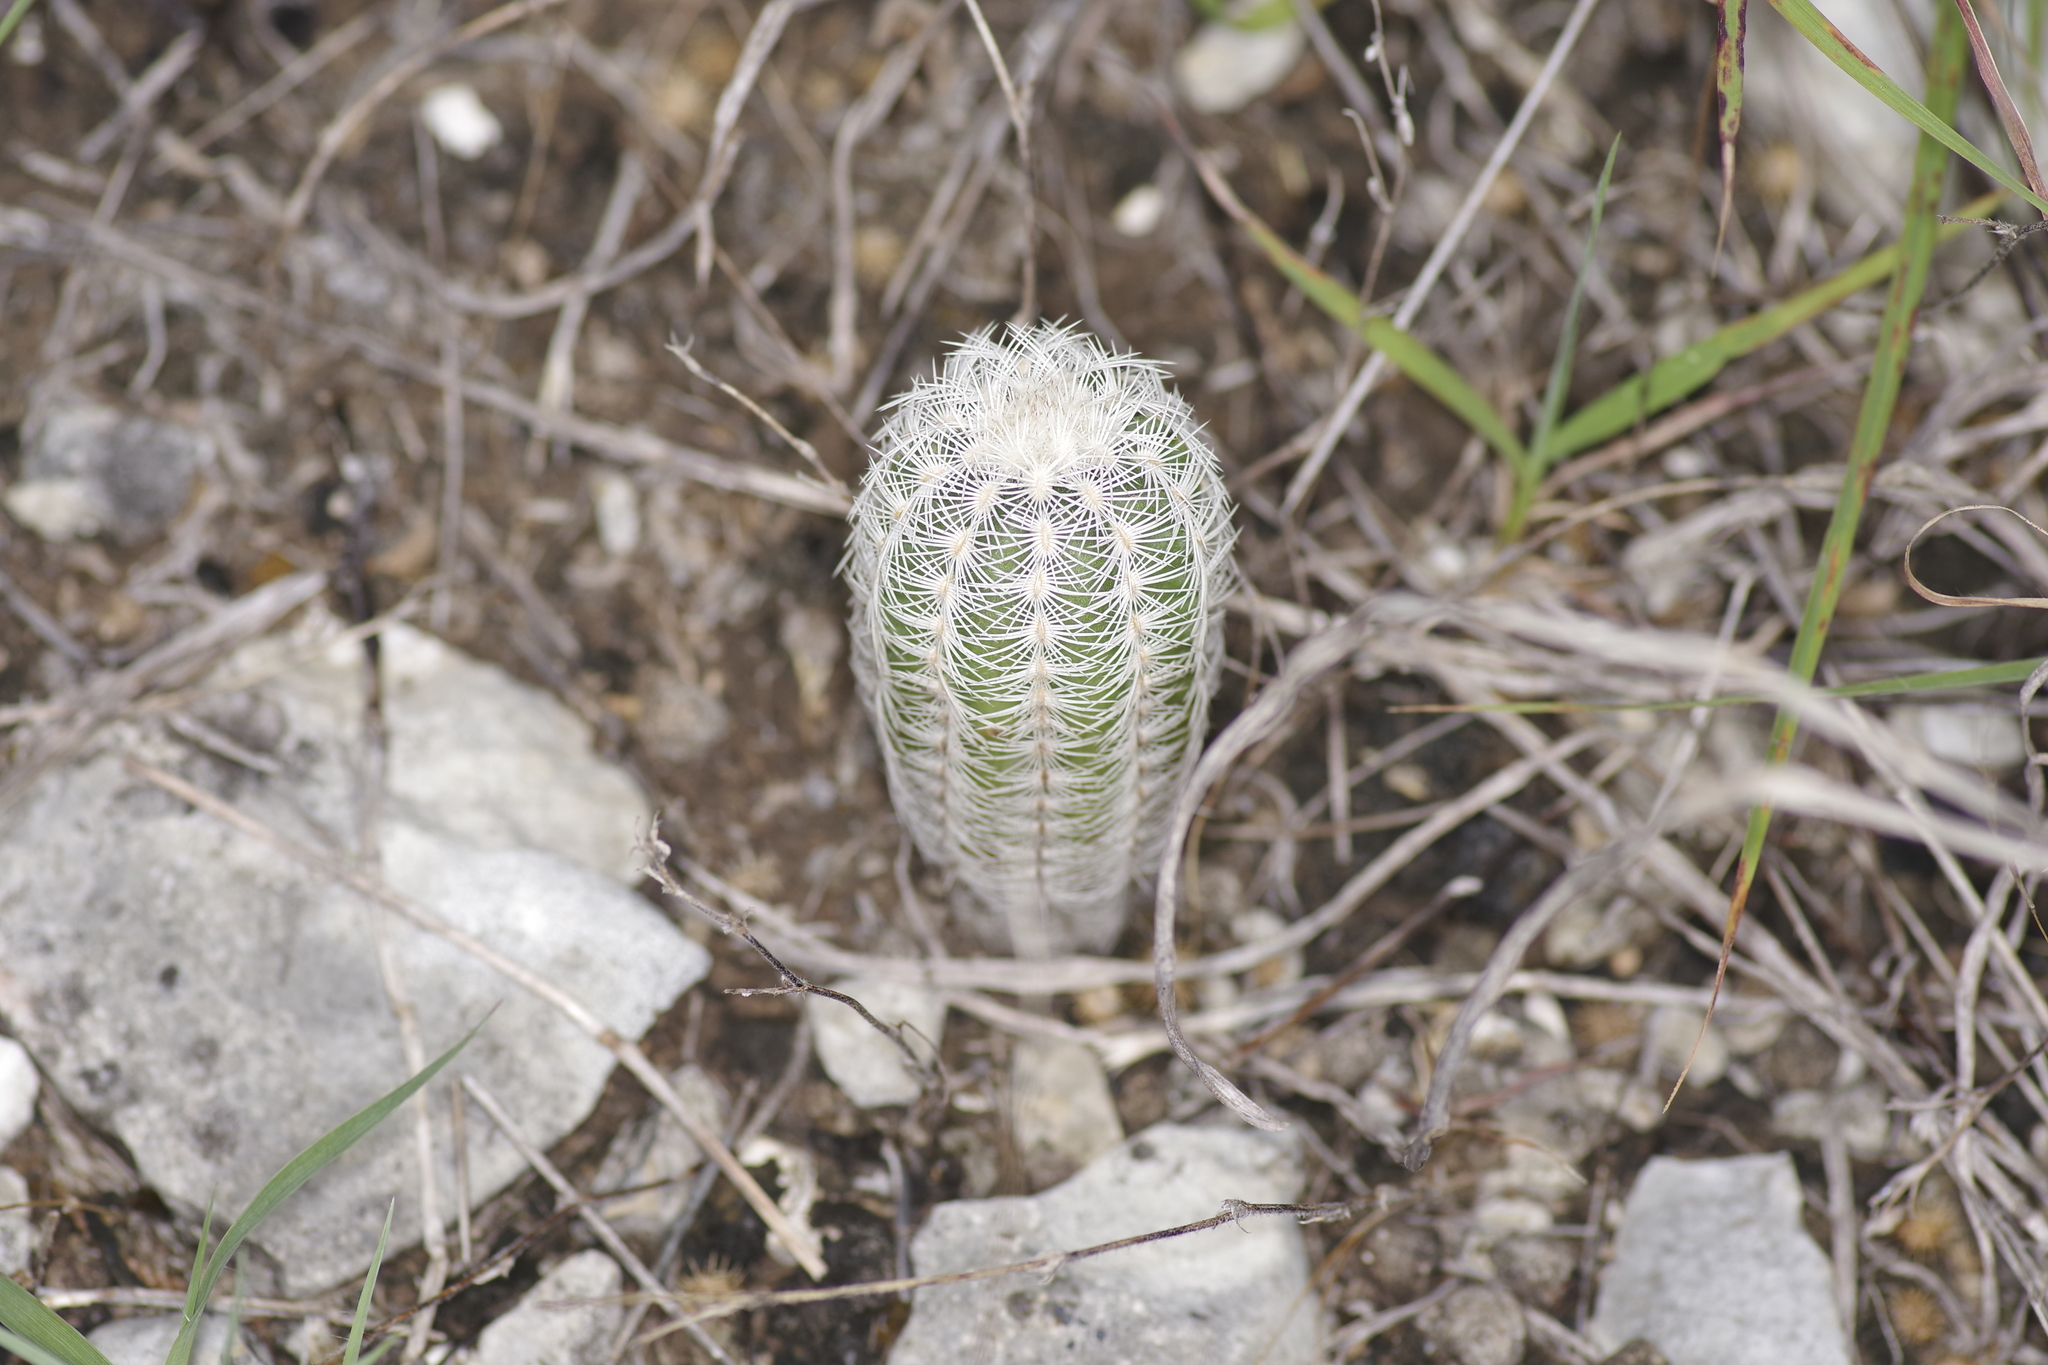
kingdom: Plantae
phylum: Tracheophyta
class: Magnoliopsida
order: Caryophyllales
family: Cactaceae
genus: Echinocereus
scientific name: Echinocereus reichenbachii
